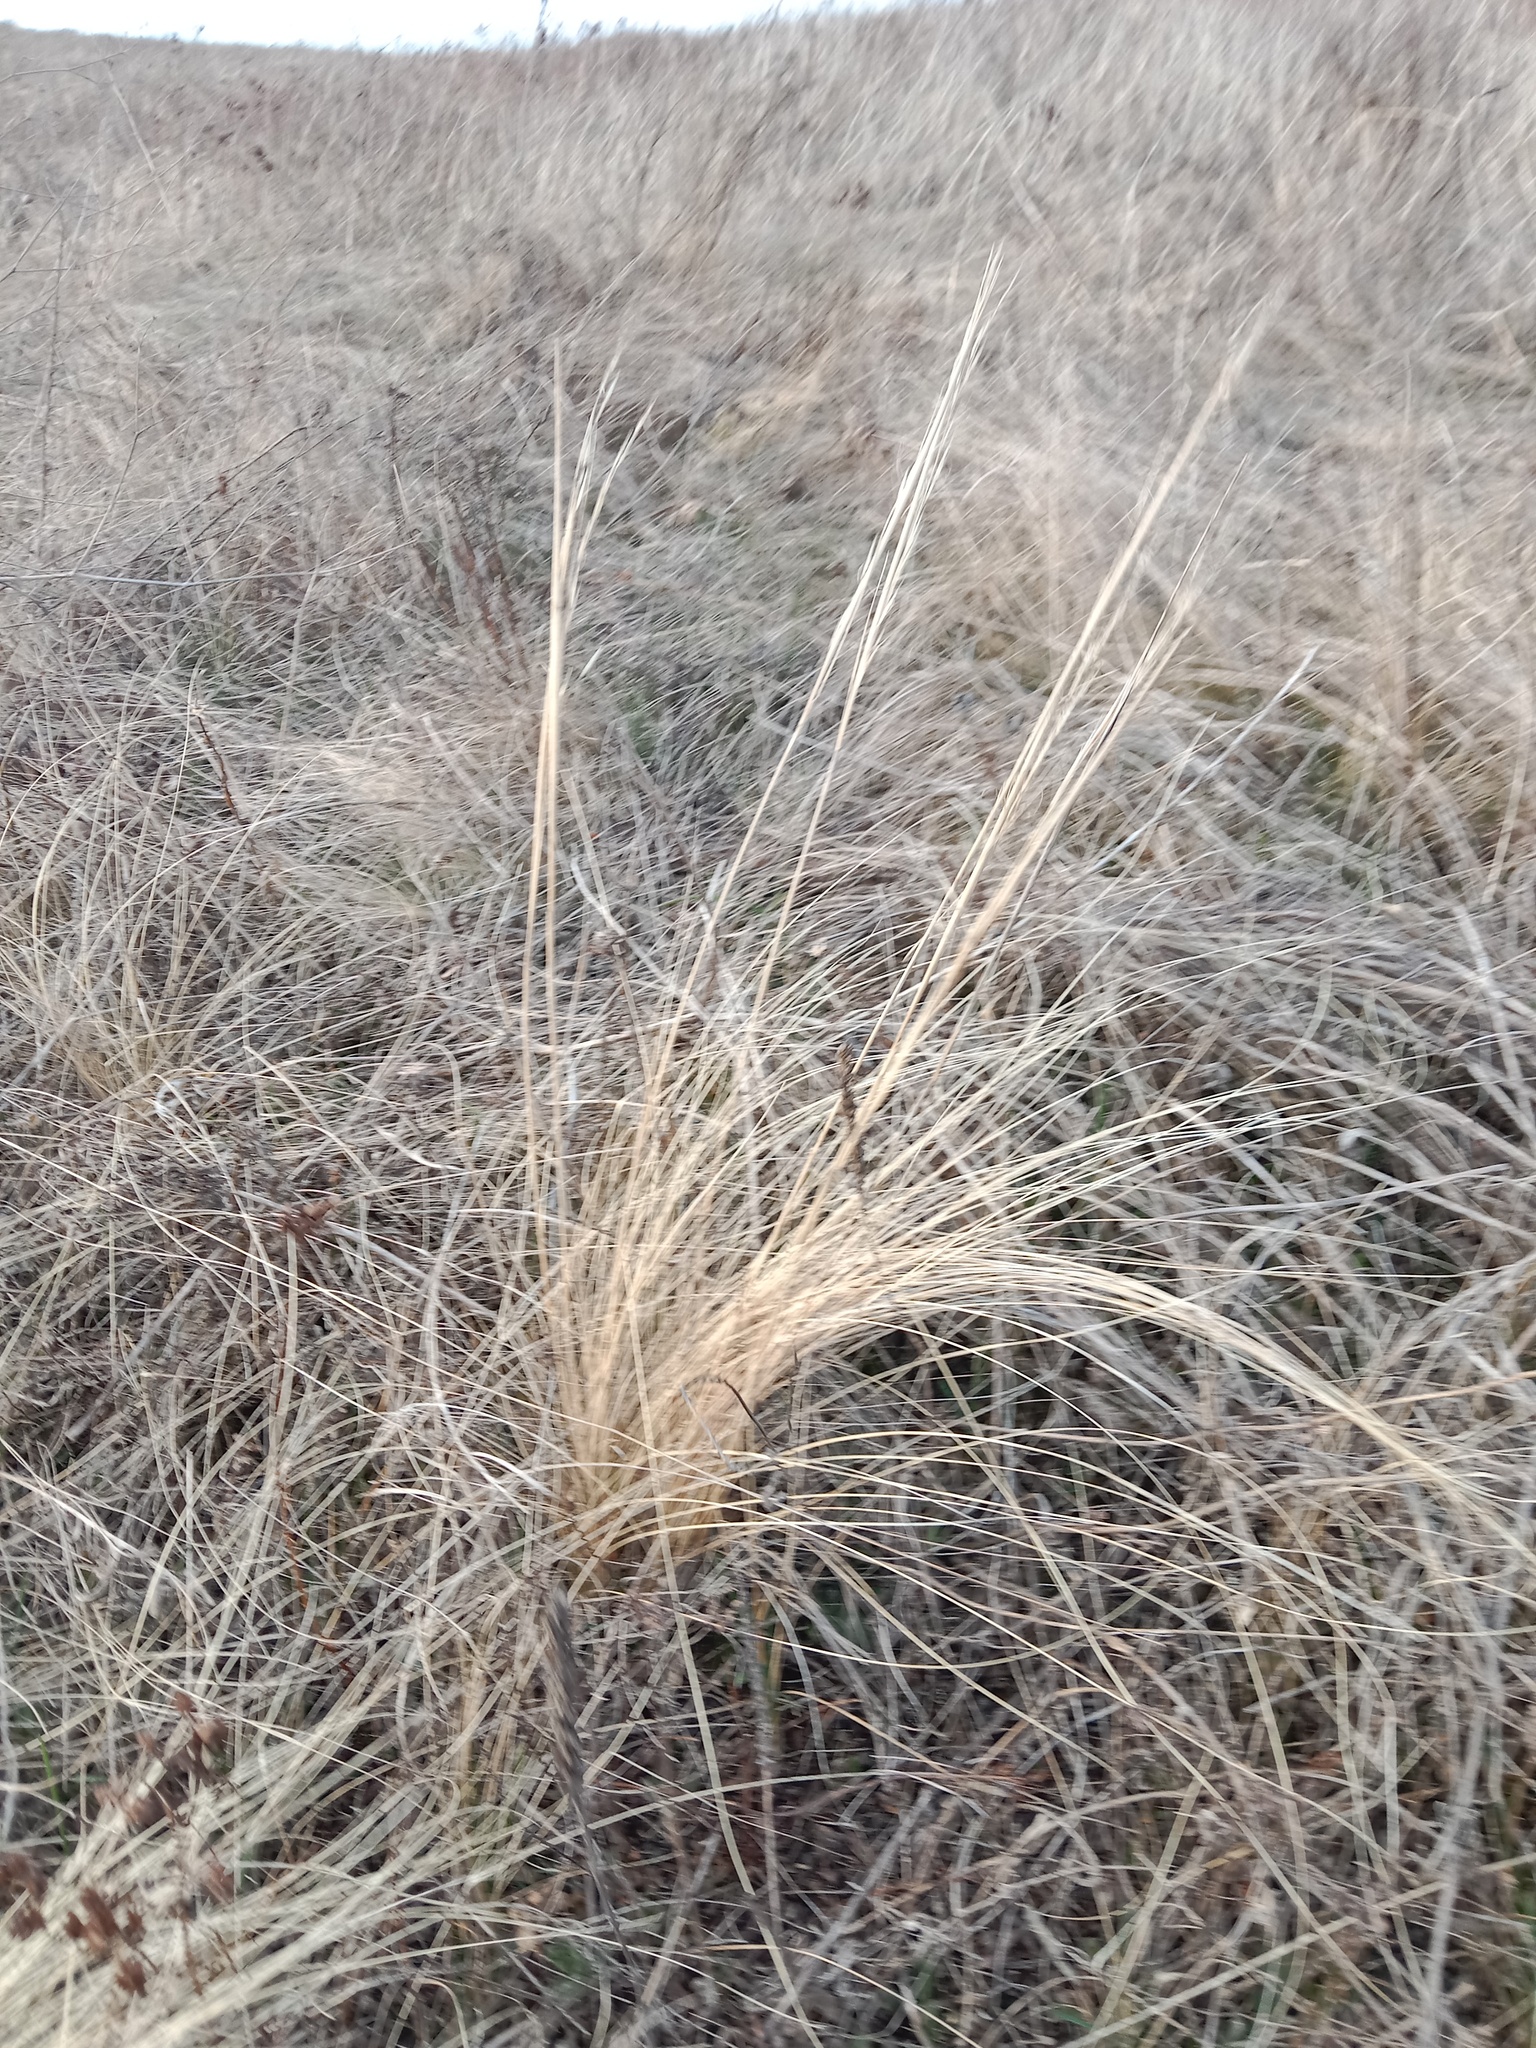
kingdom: Plantae
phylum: Tracheophyta
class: Liliopsida
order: Poales
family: Poaceae
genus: Stipa
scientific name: Stipa capillata
